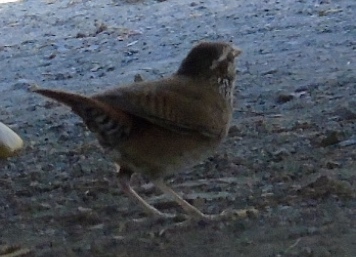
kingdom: Animalia
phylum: Chordata
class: Aves
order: Passeriformes
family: Troglodytidae
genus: Thryophilus
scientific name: Thryophilus sinaloa
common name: Sinaloa wren
